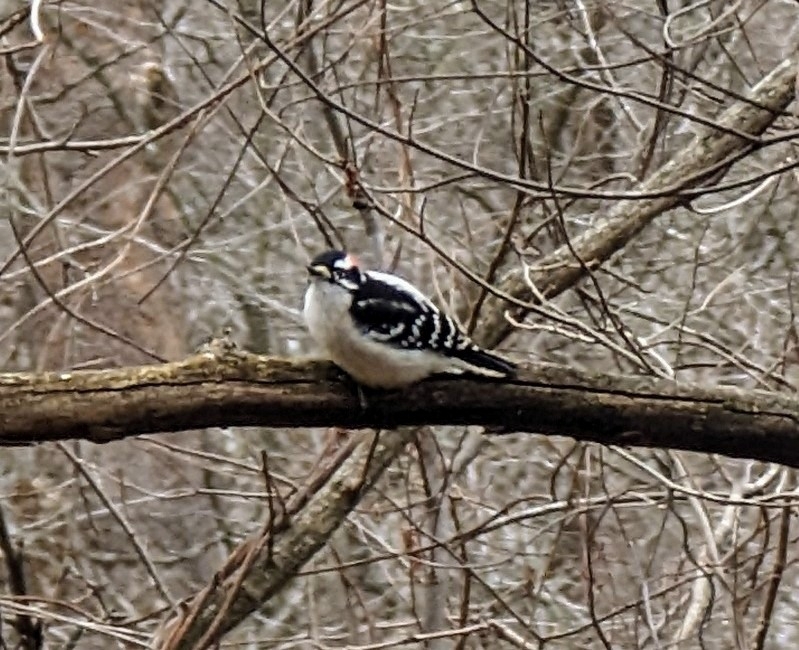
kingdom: Animalia
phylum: Chordata
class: Aves
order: Piciformes
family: Picidae
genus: Dryobates
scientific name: Dryobates pubescens
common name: Downy woodpecker
